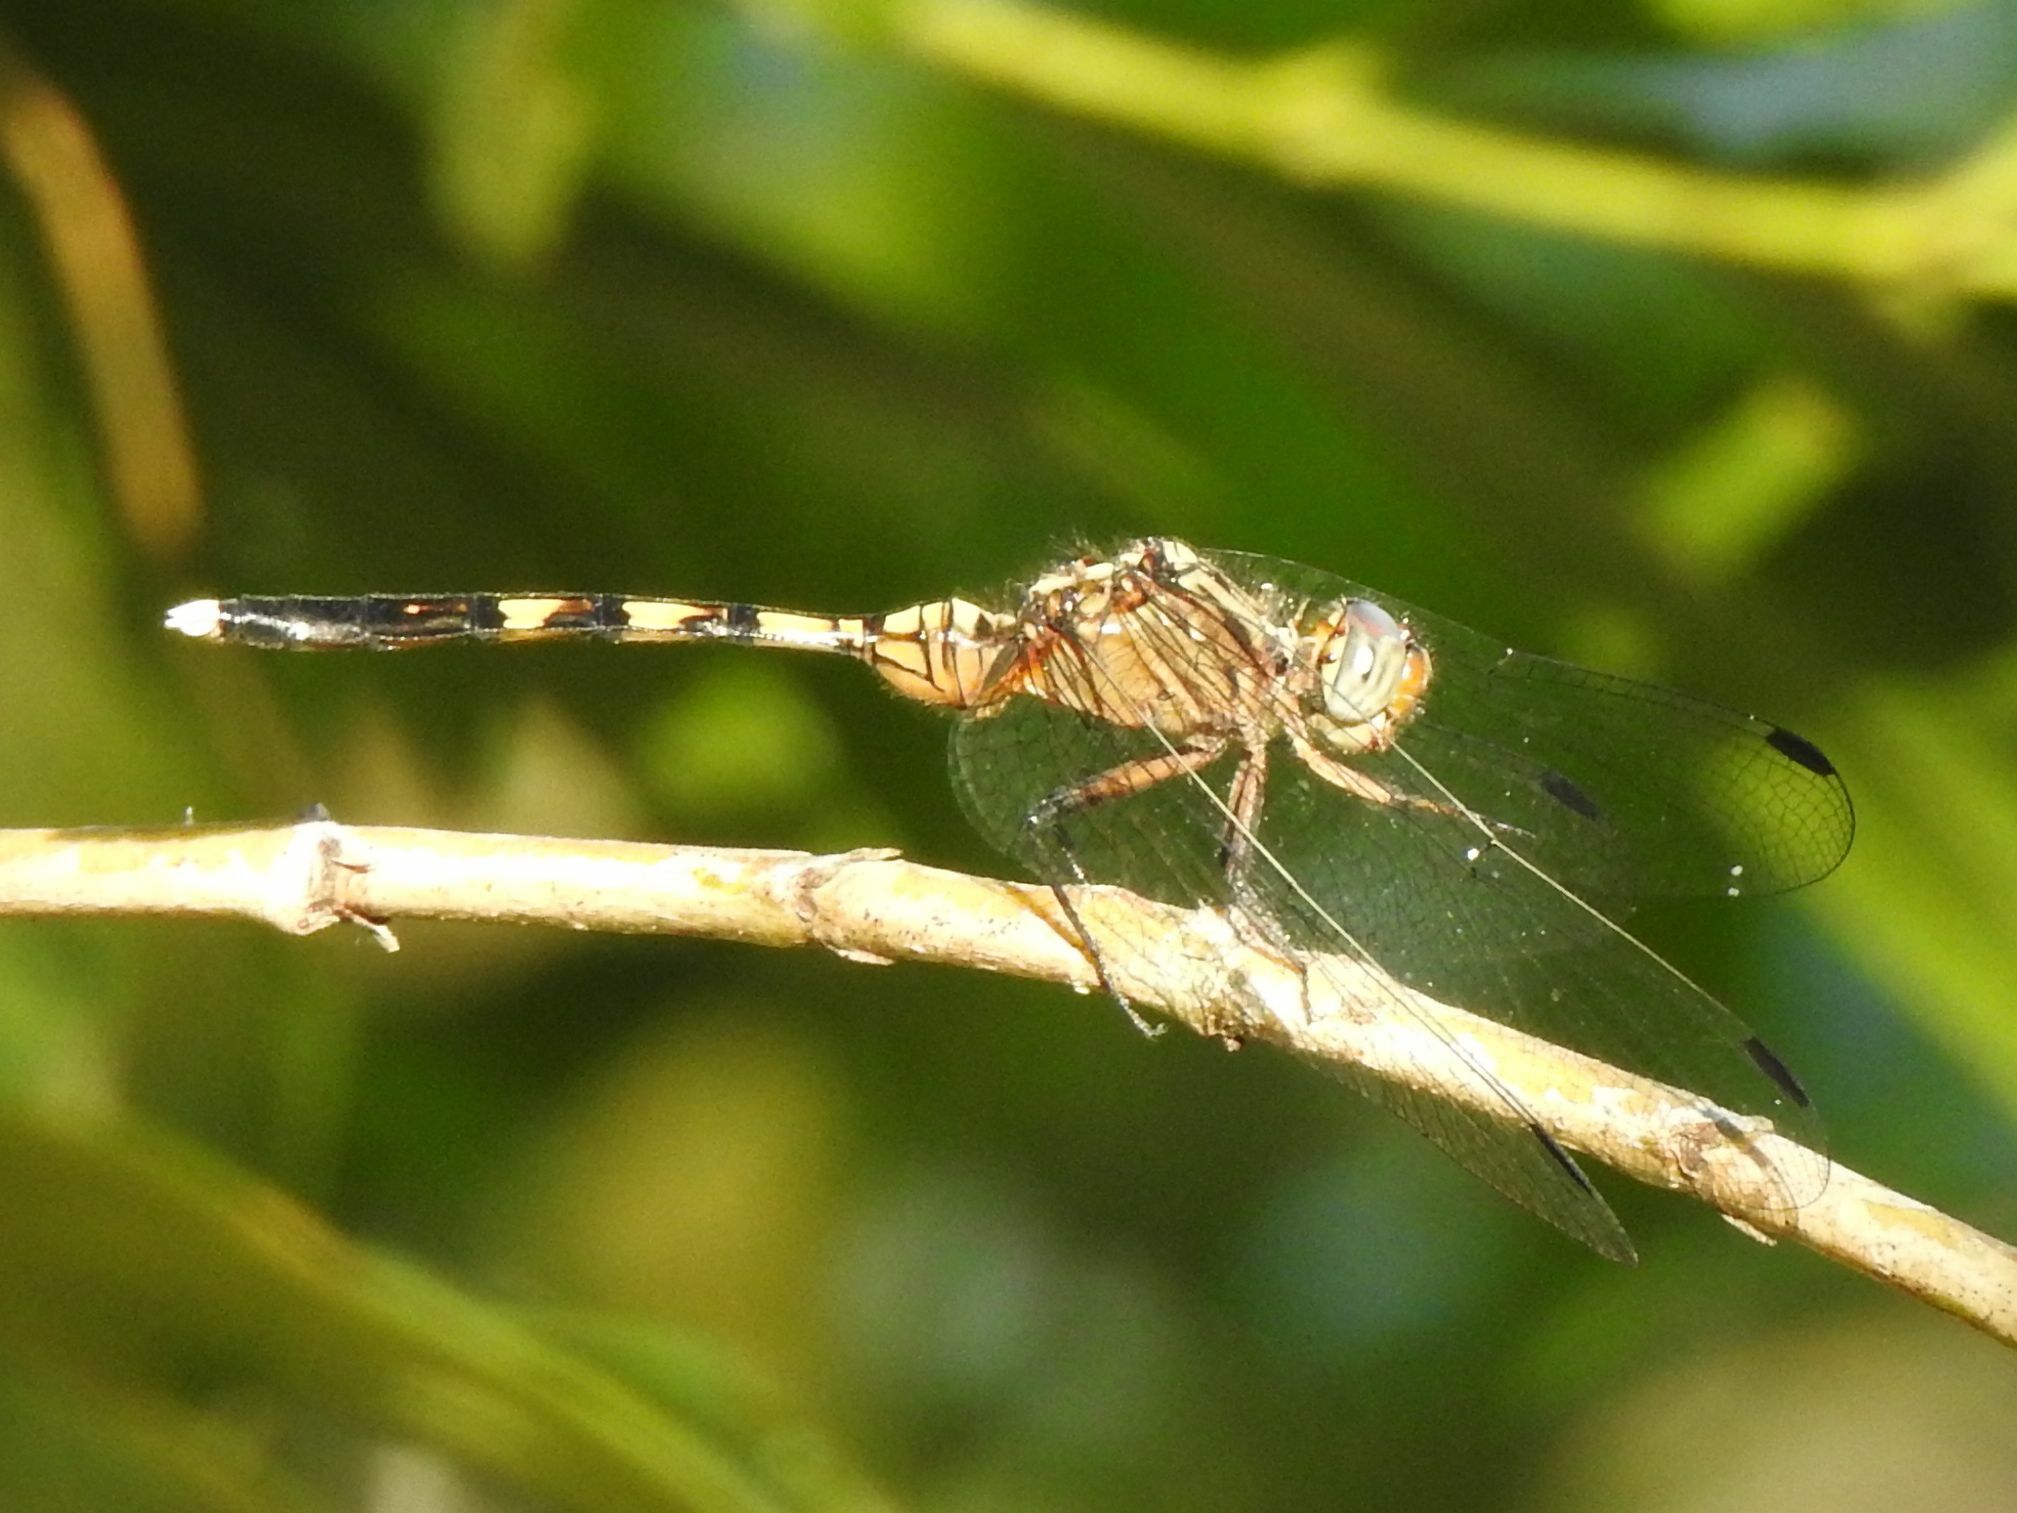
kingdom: Animalia
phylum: Arthropoda
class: Insecta
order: Odonata
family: Libellulidae
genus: Orthetrum
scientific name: Orthetrum julia
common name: Julia skimmer
